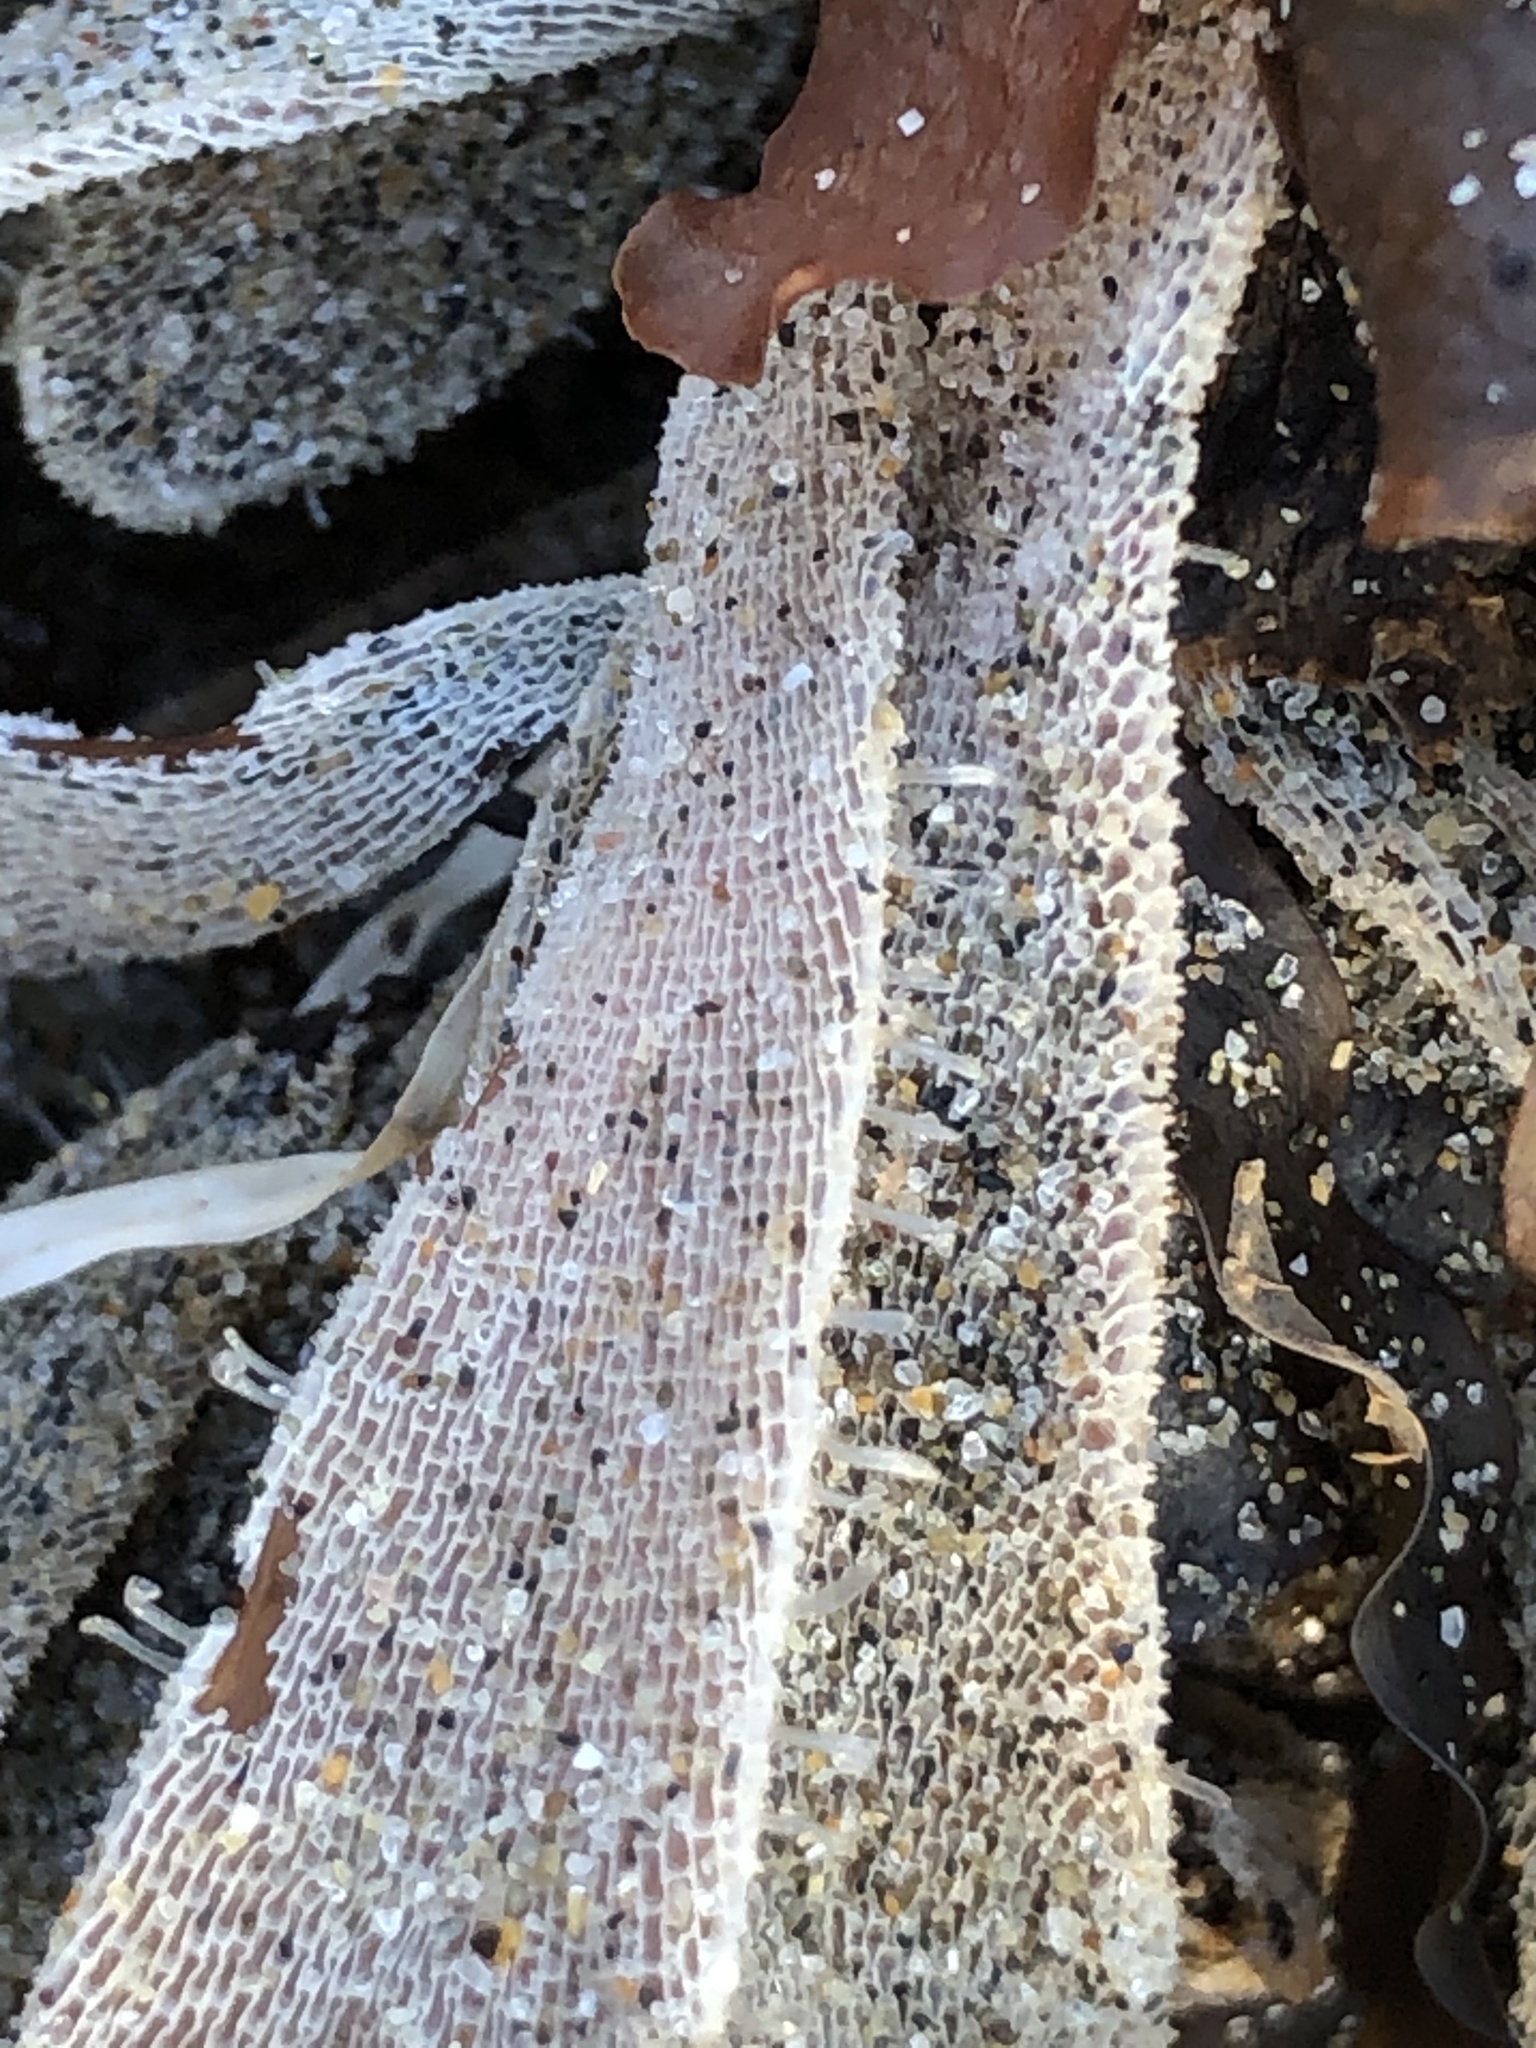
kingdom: Animalia
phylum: Bryozoa
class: Gymnolaemata
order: Cheilostomatida
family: Membraniporidae
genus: Membranipora
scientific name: Membranipora membranacea
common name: Sea mat
